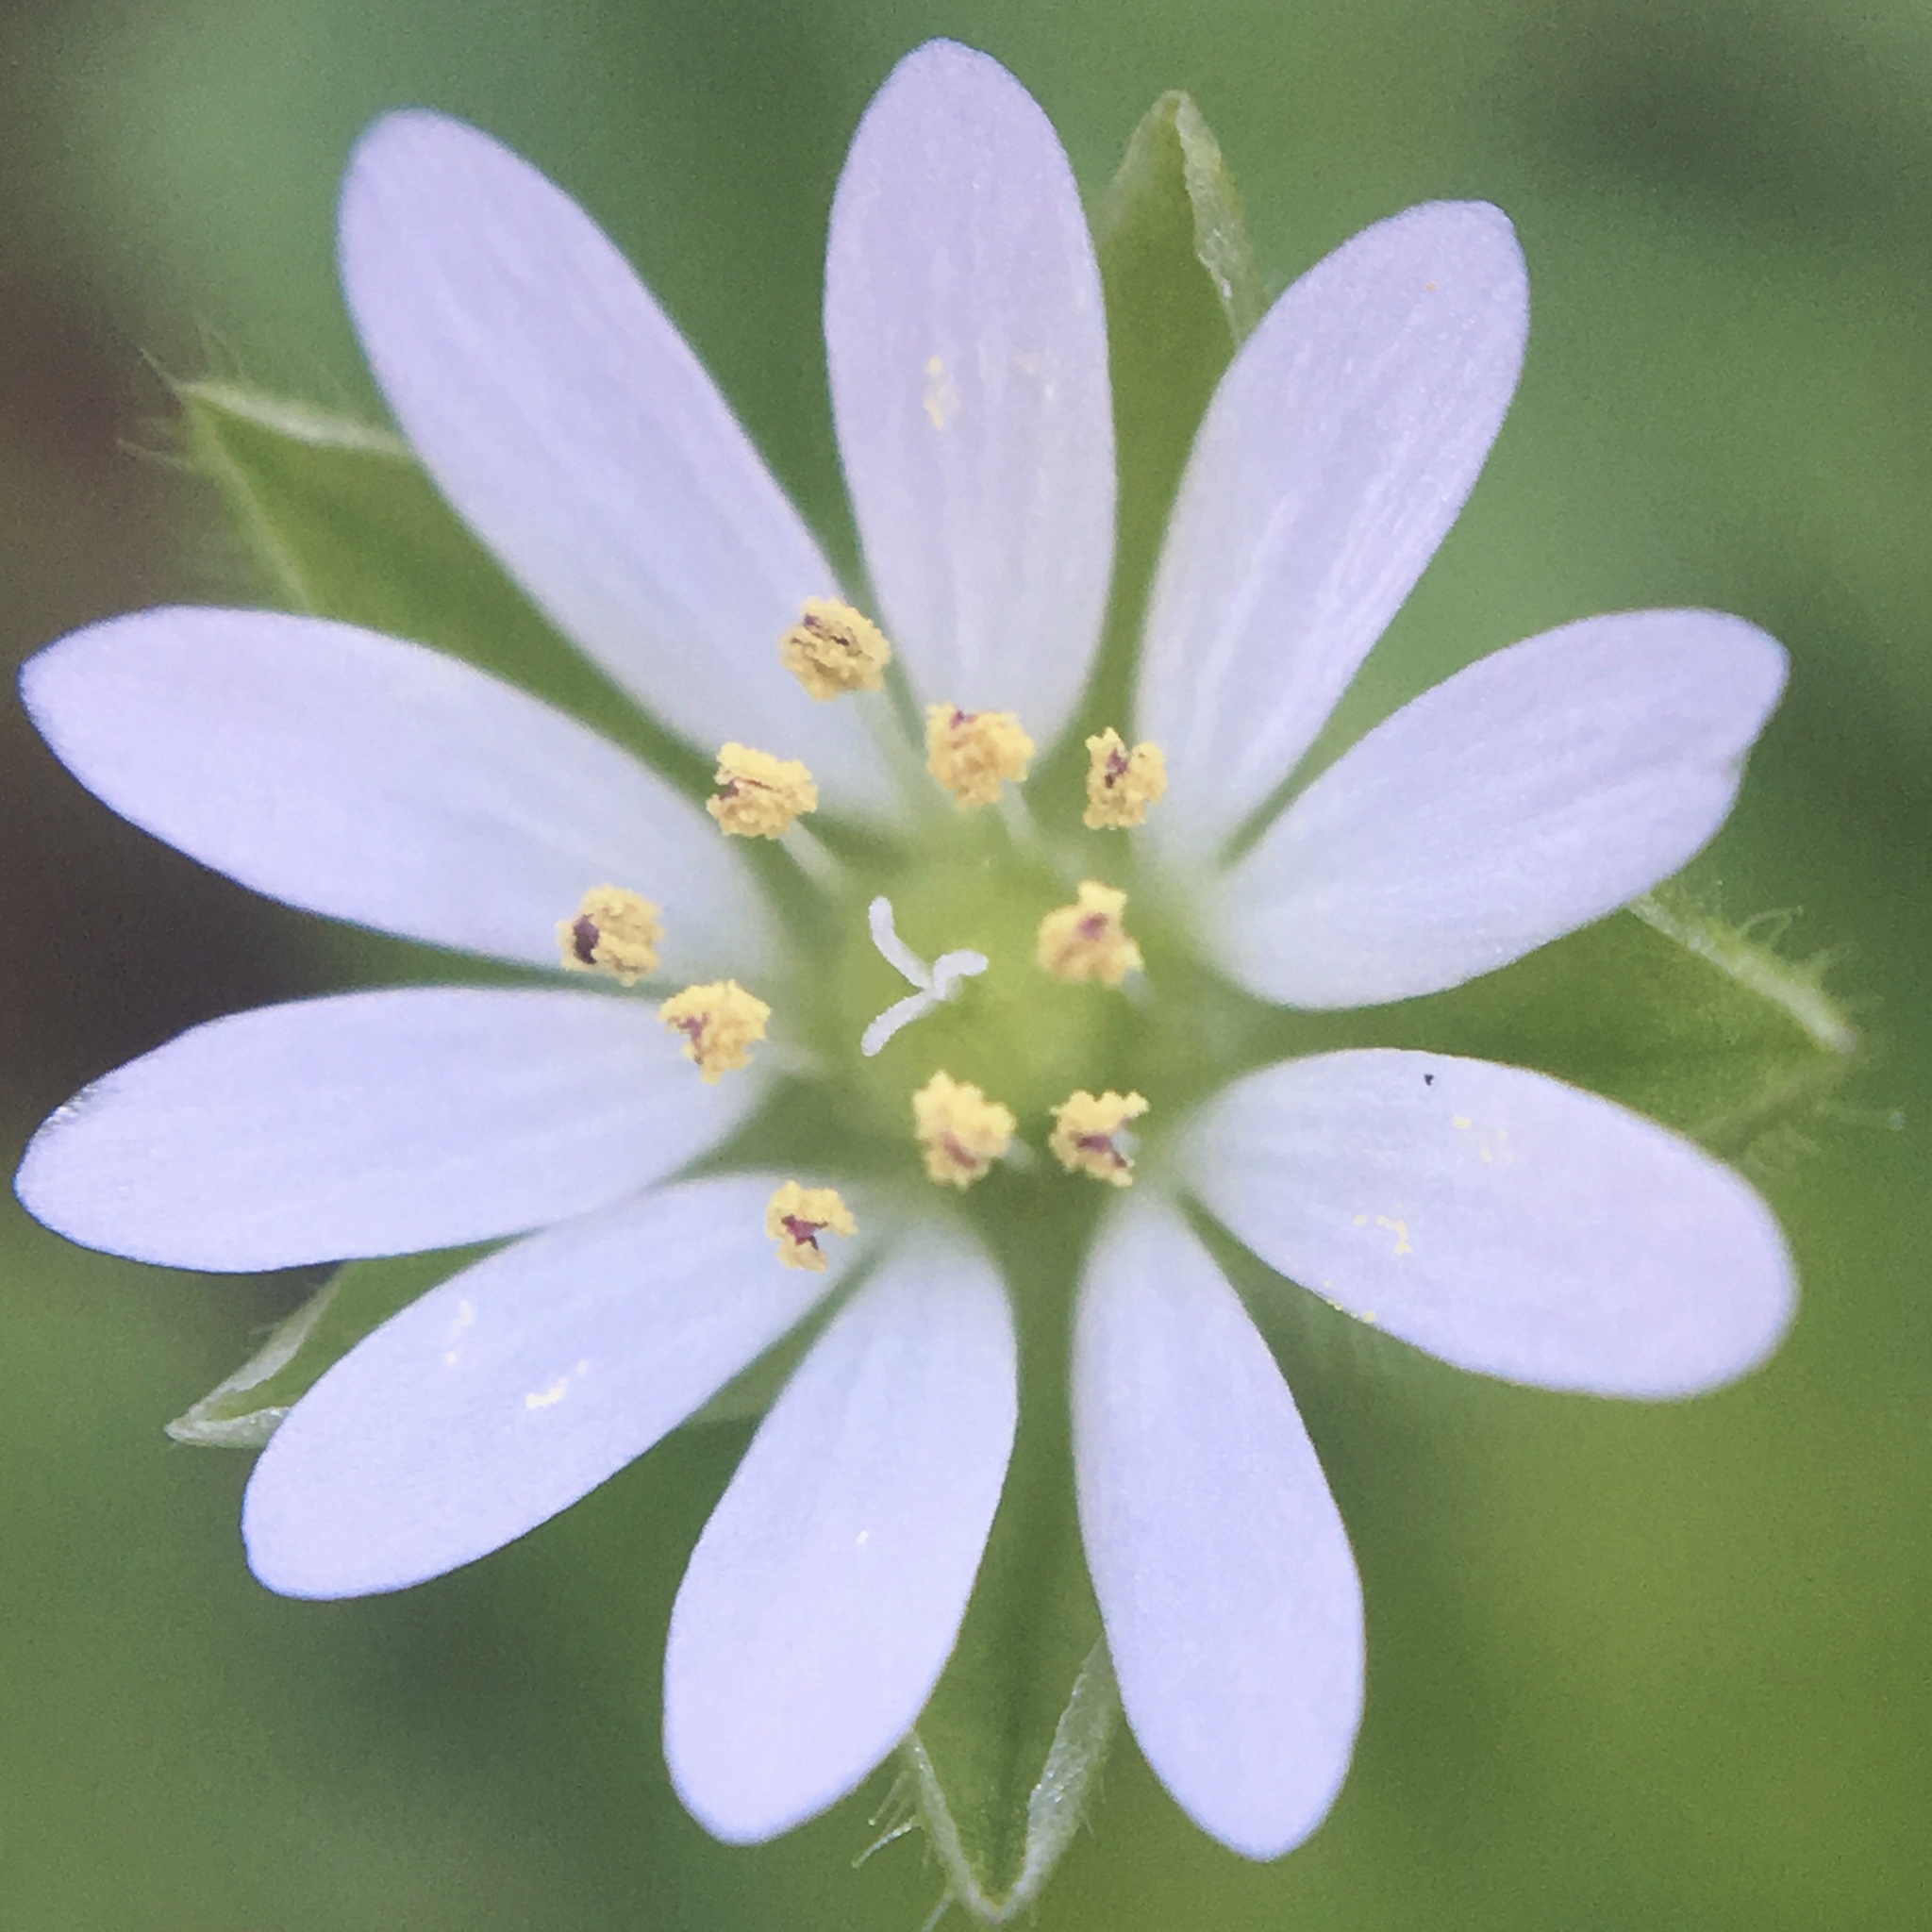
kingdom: Plantae
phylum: Tracheophyta
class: Magnoliopsida
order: Caryophyllales
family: Caryophyllaceae
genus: Stellaria
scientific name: Stellaria media
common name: Common chickweed
